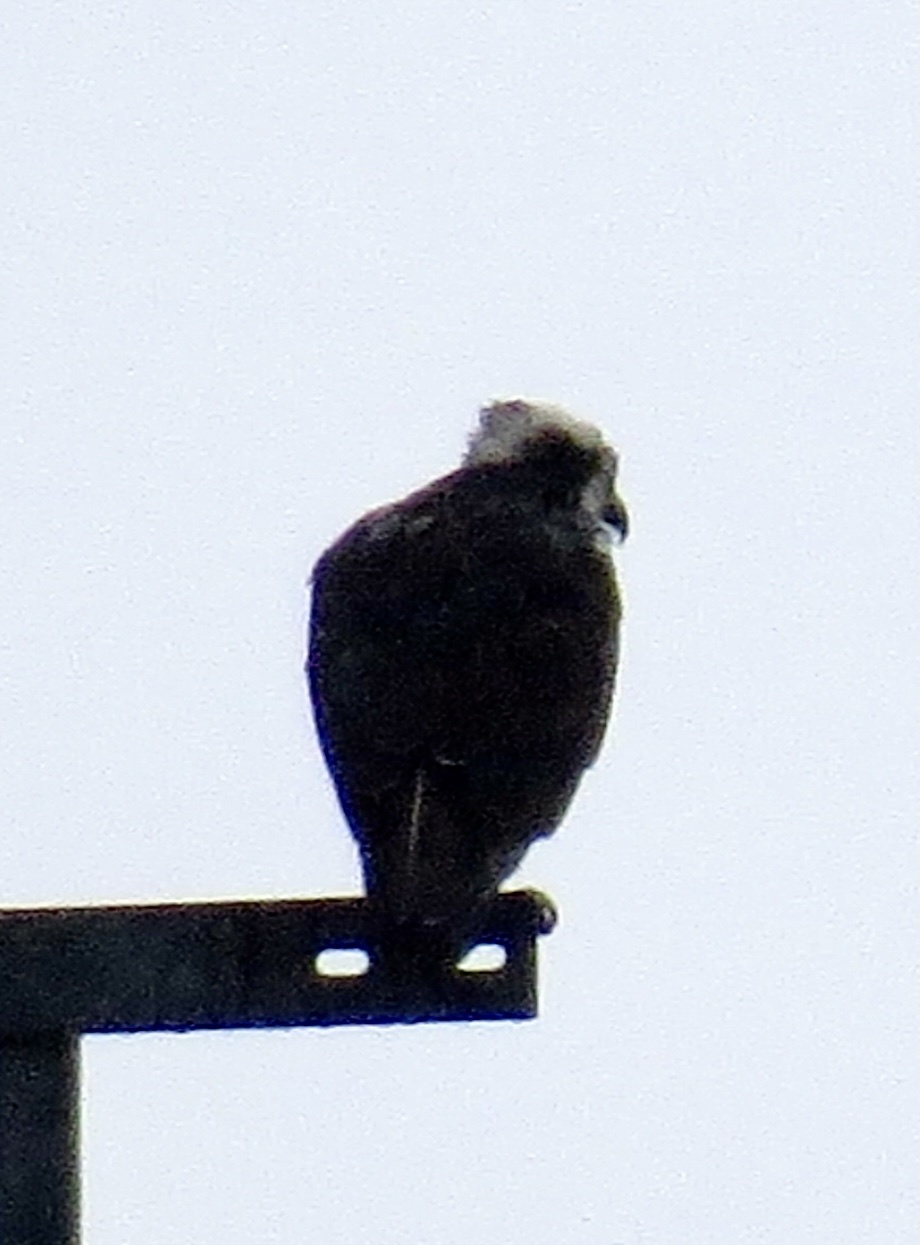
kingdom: Animalia
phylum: Chordata
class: Aves
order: Accipitriformes
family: Pandionidae
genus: Pandion
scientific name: Pandion haliaetus
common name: Osprey
